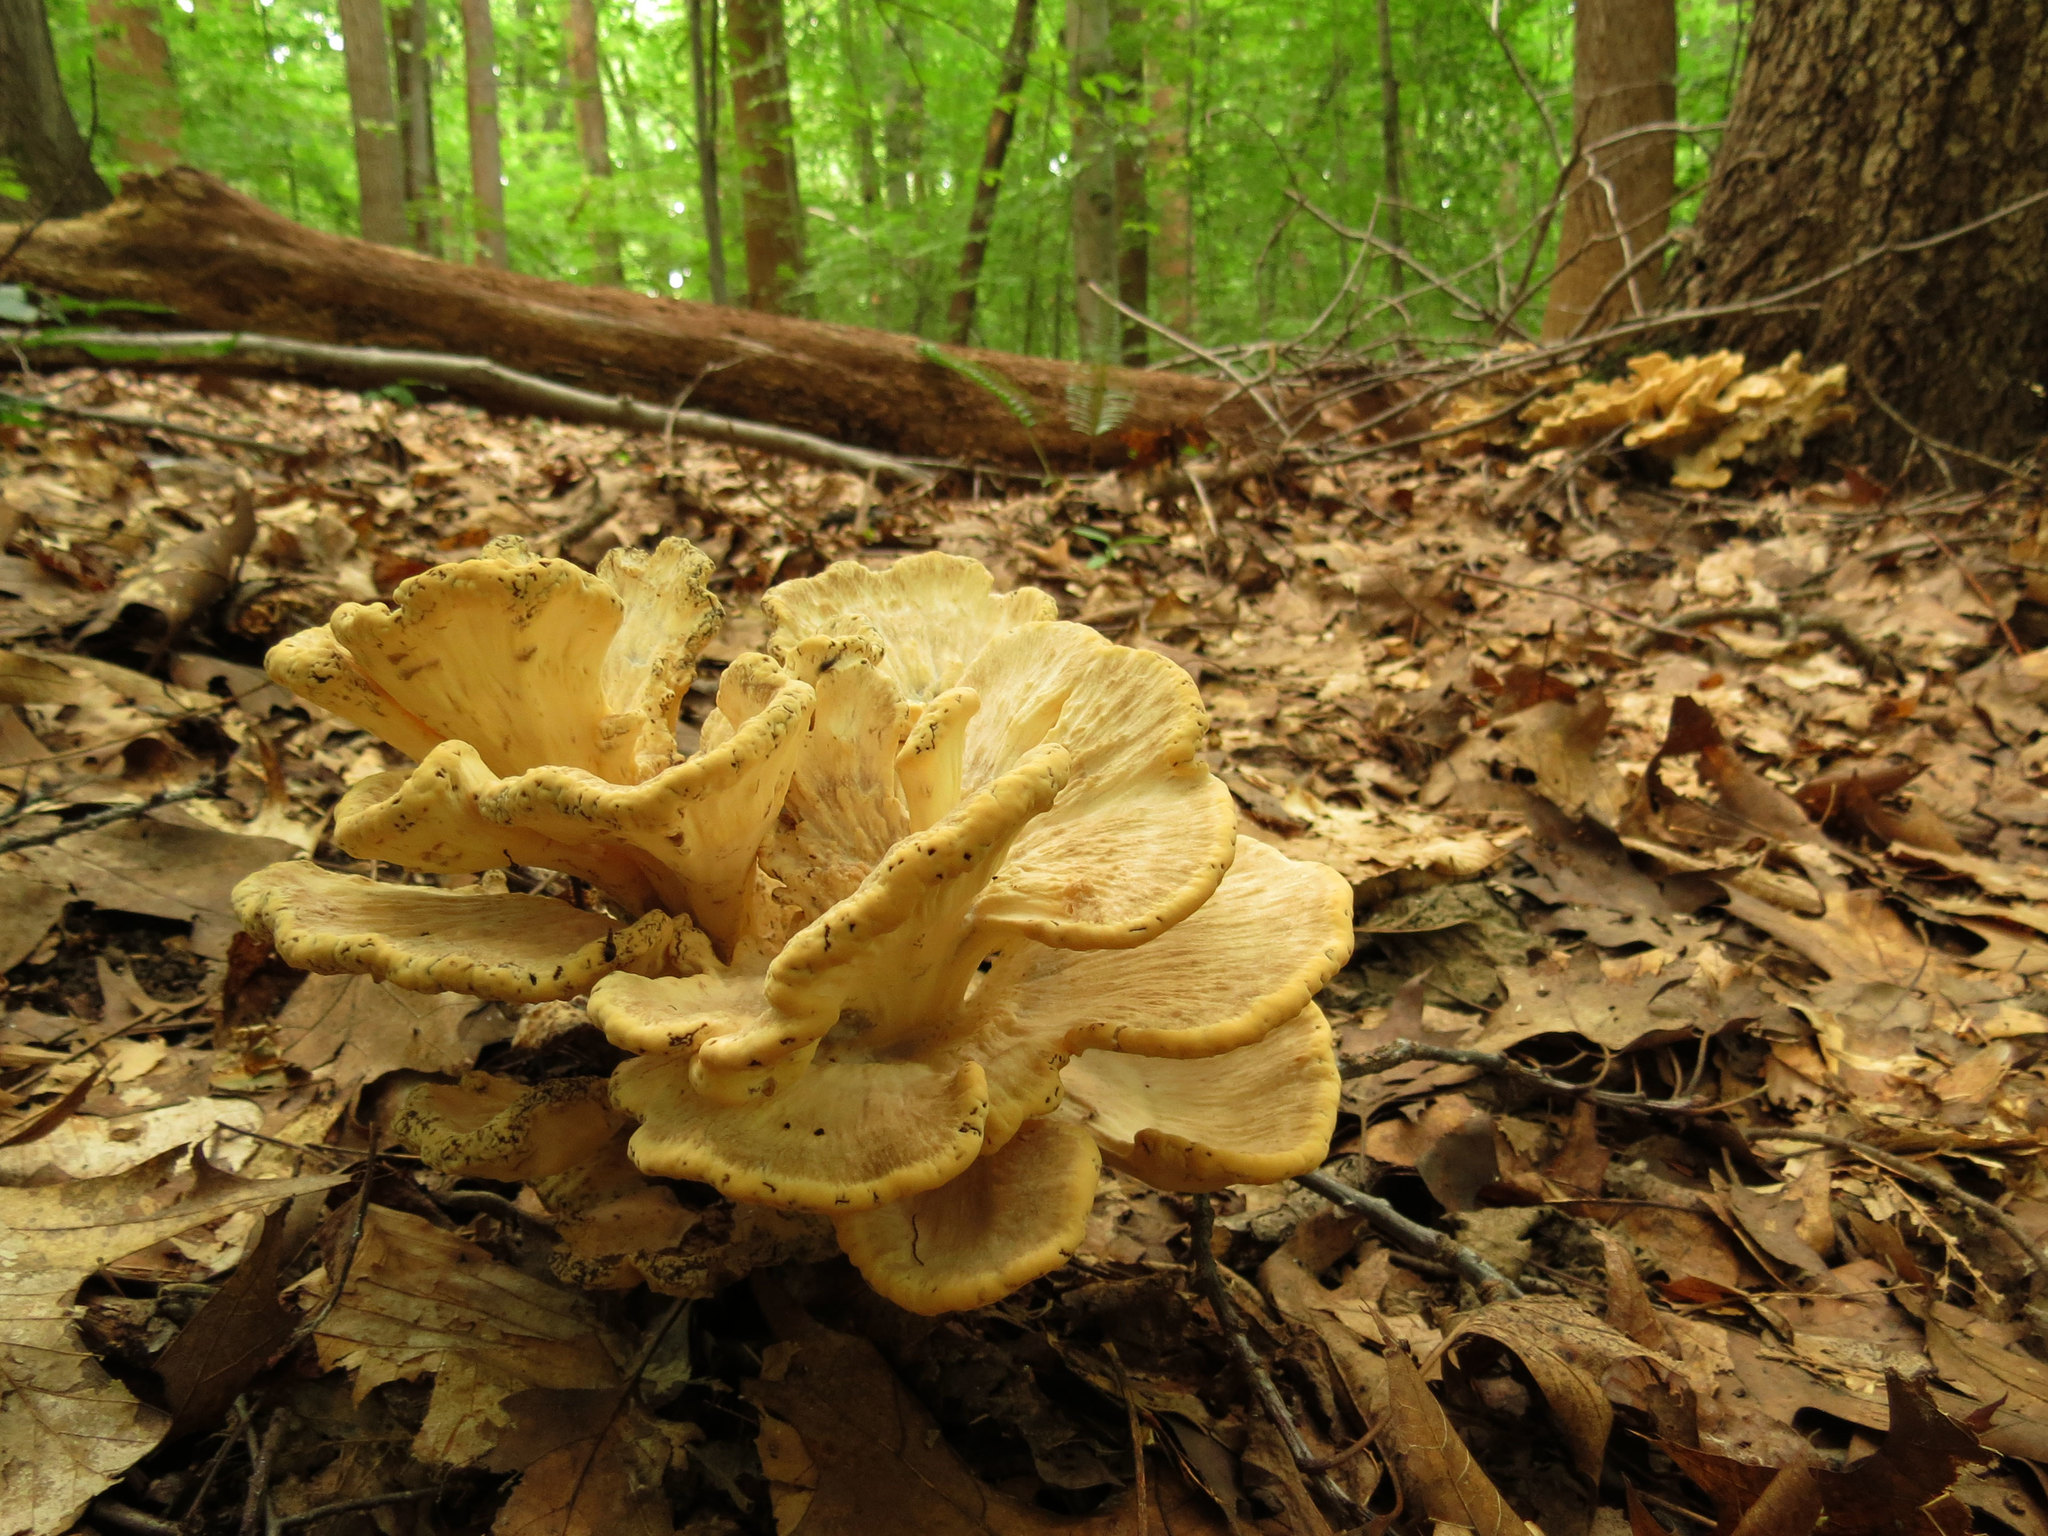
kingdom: Fungi
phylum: Basidiomycota
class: Agaricomycetes
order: Polyporales
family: Meripilaceae
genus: Meripilus
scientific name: Meripilus sumstinei
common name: Black-staining polypore
